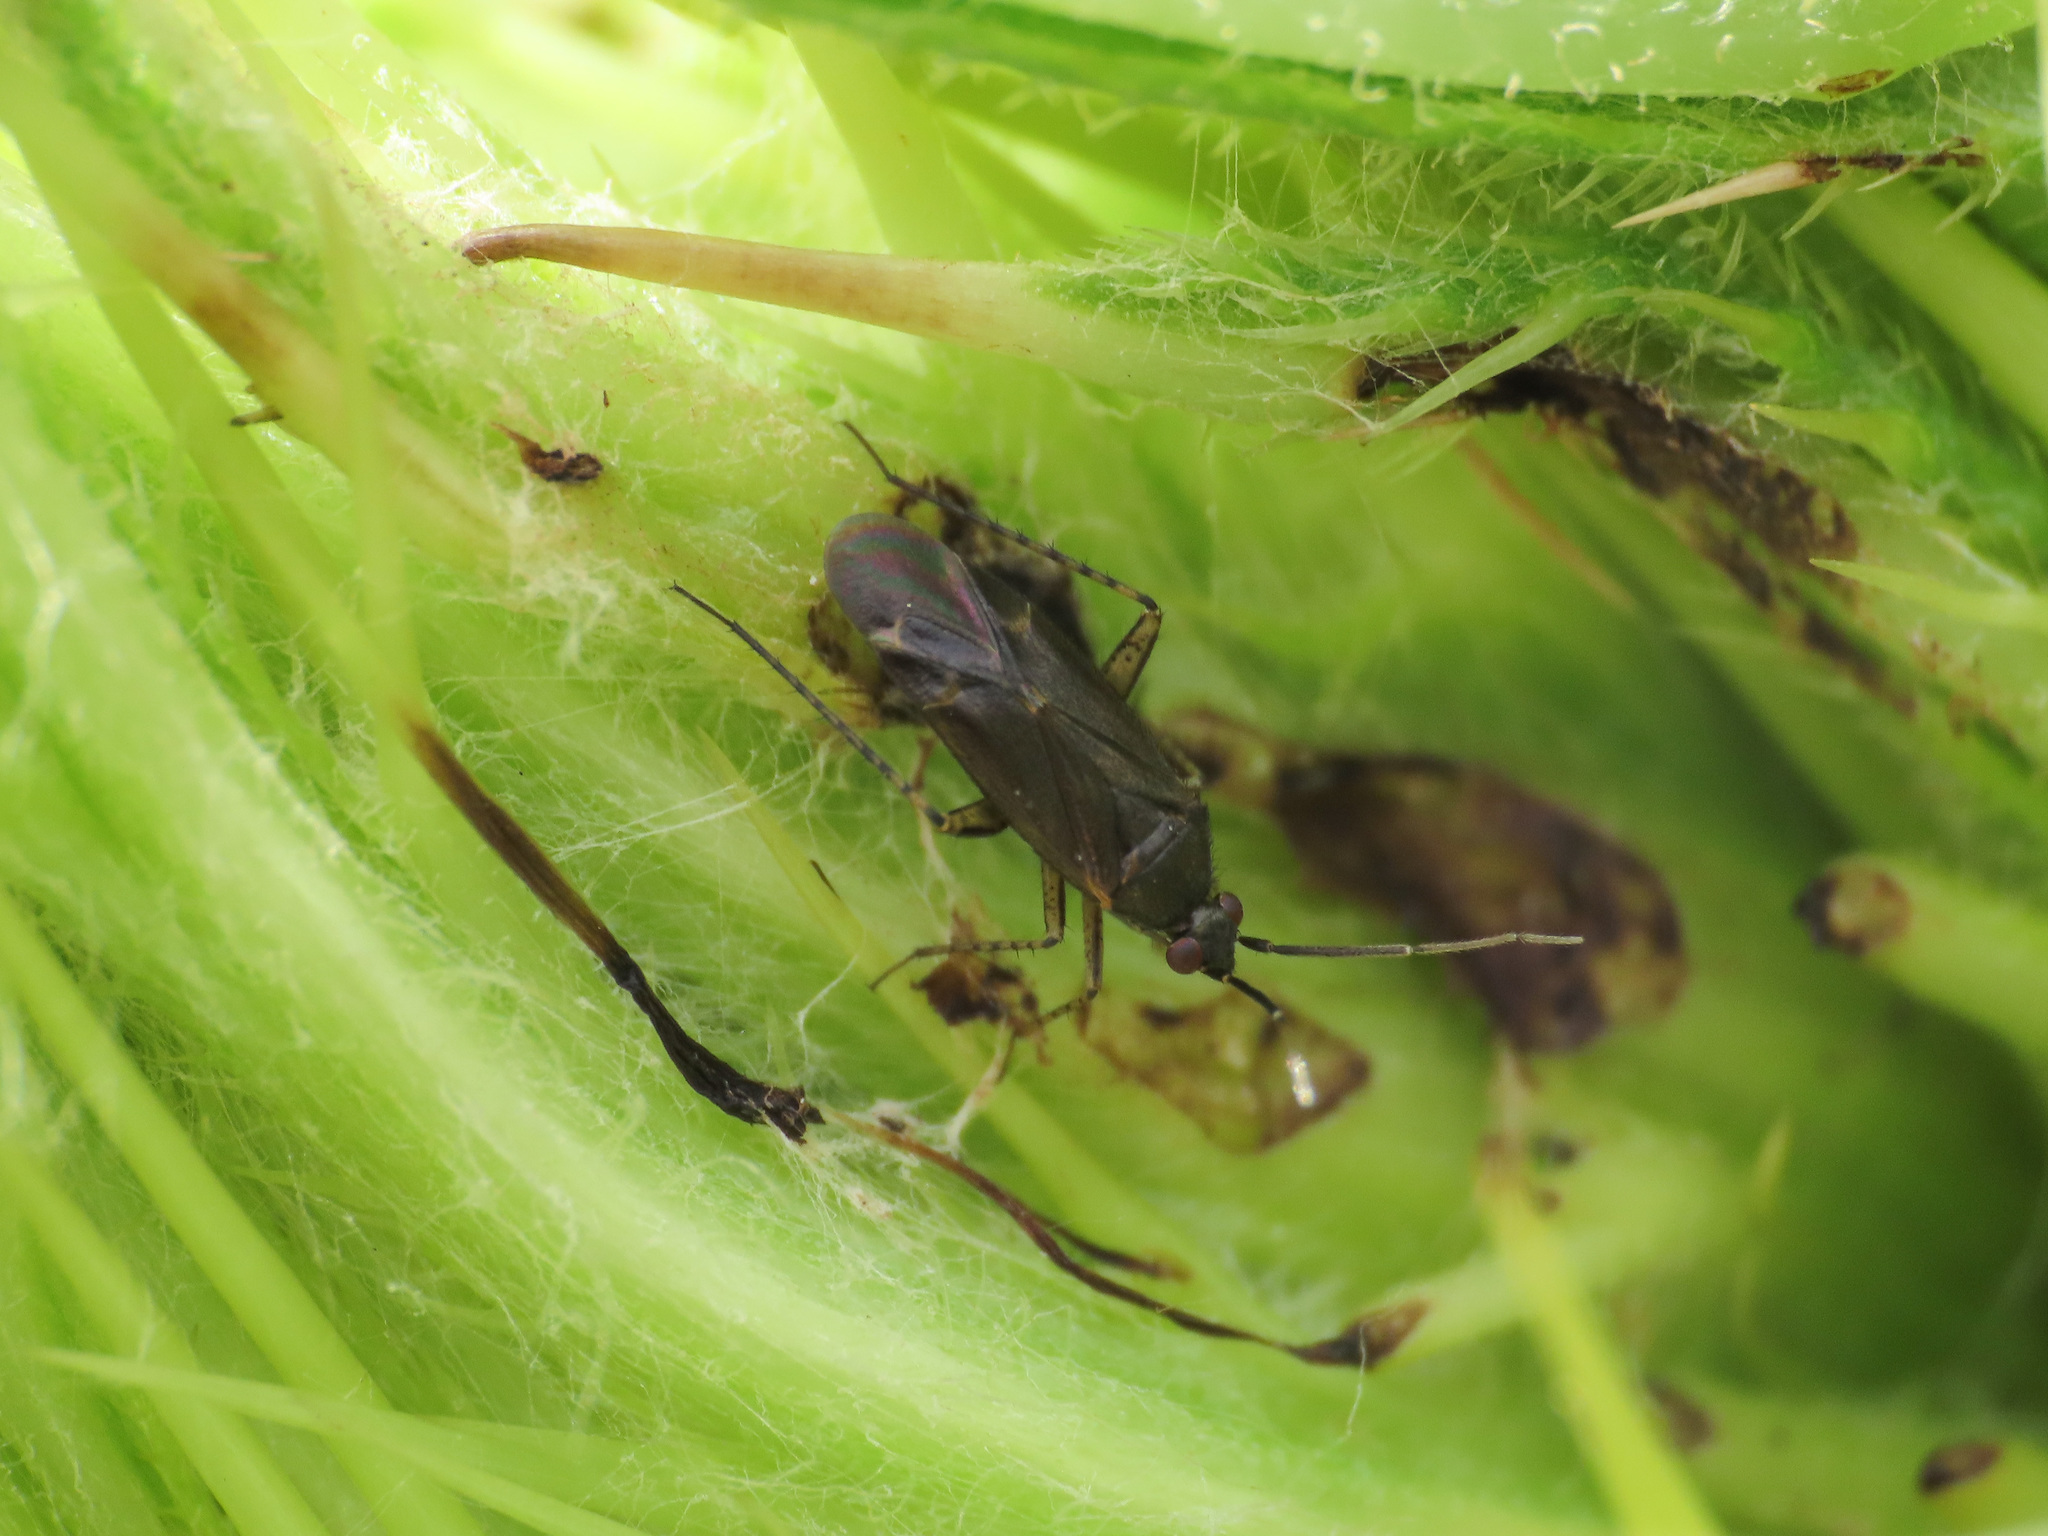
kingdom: Animalia
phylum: Arthropoda
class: Insecta
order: Hemiptera
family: Miridae
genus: Plagiognathus
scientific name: Plagiognathus arbustorum
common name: Plant bug
